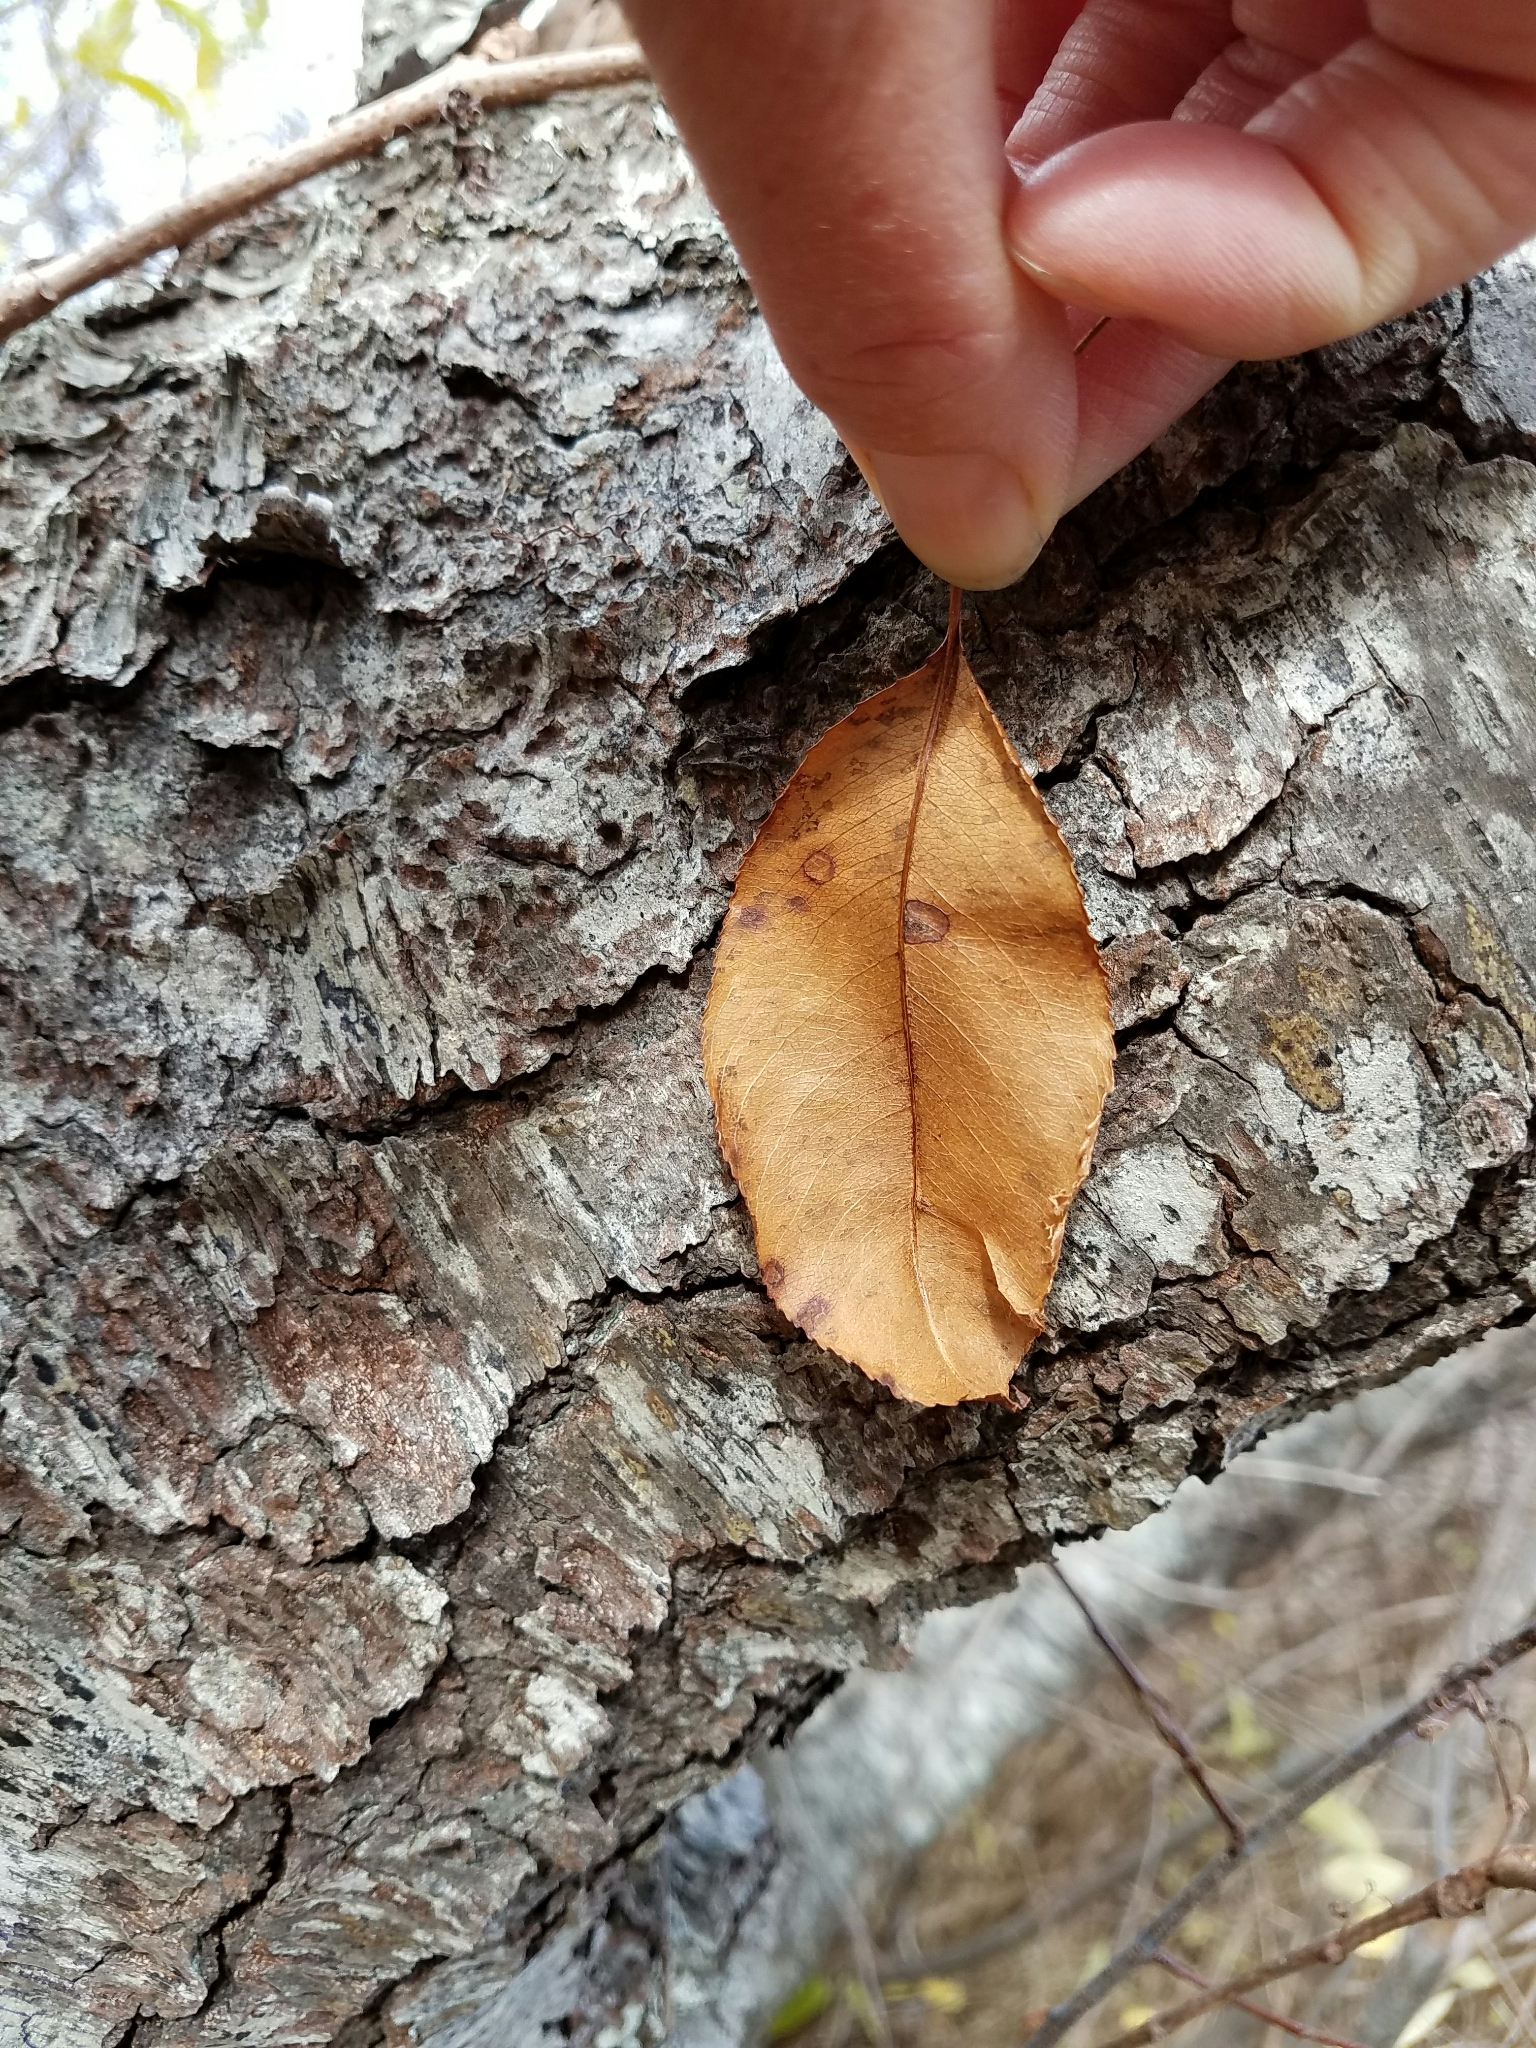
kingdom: Plantae
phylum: Tracheophyta
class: Magnoliopsida
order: Rosales
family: Rosaceae
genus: Prunus
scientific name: Prunus serotina
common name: Black cherry
